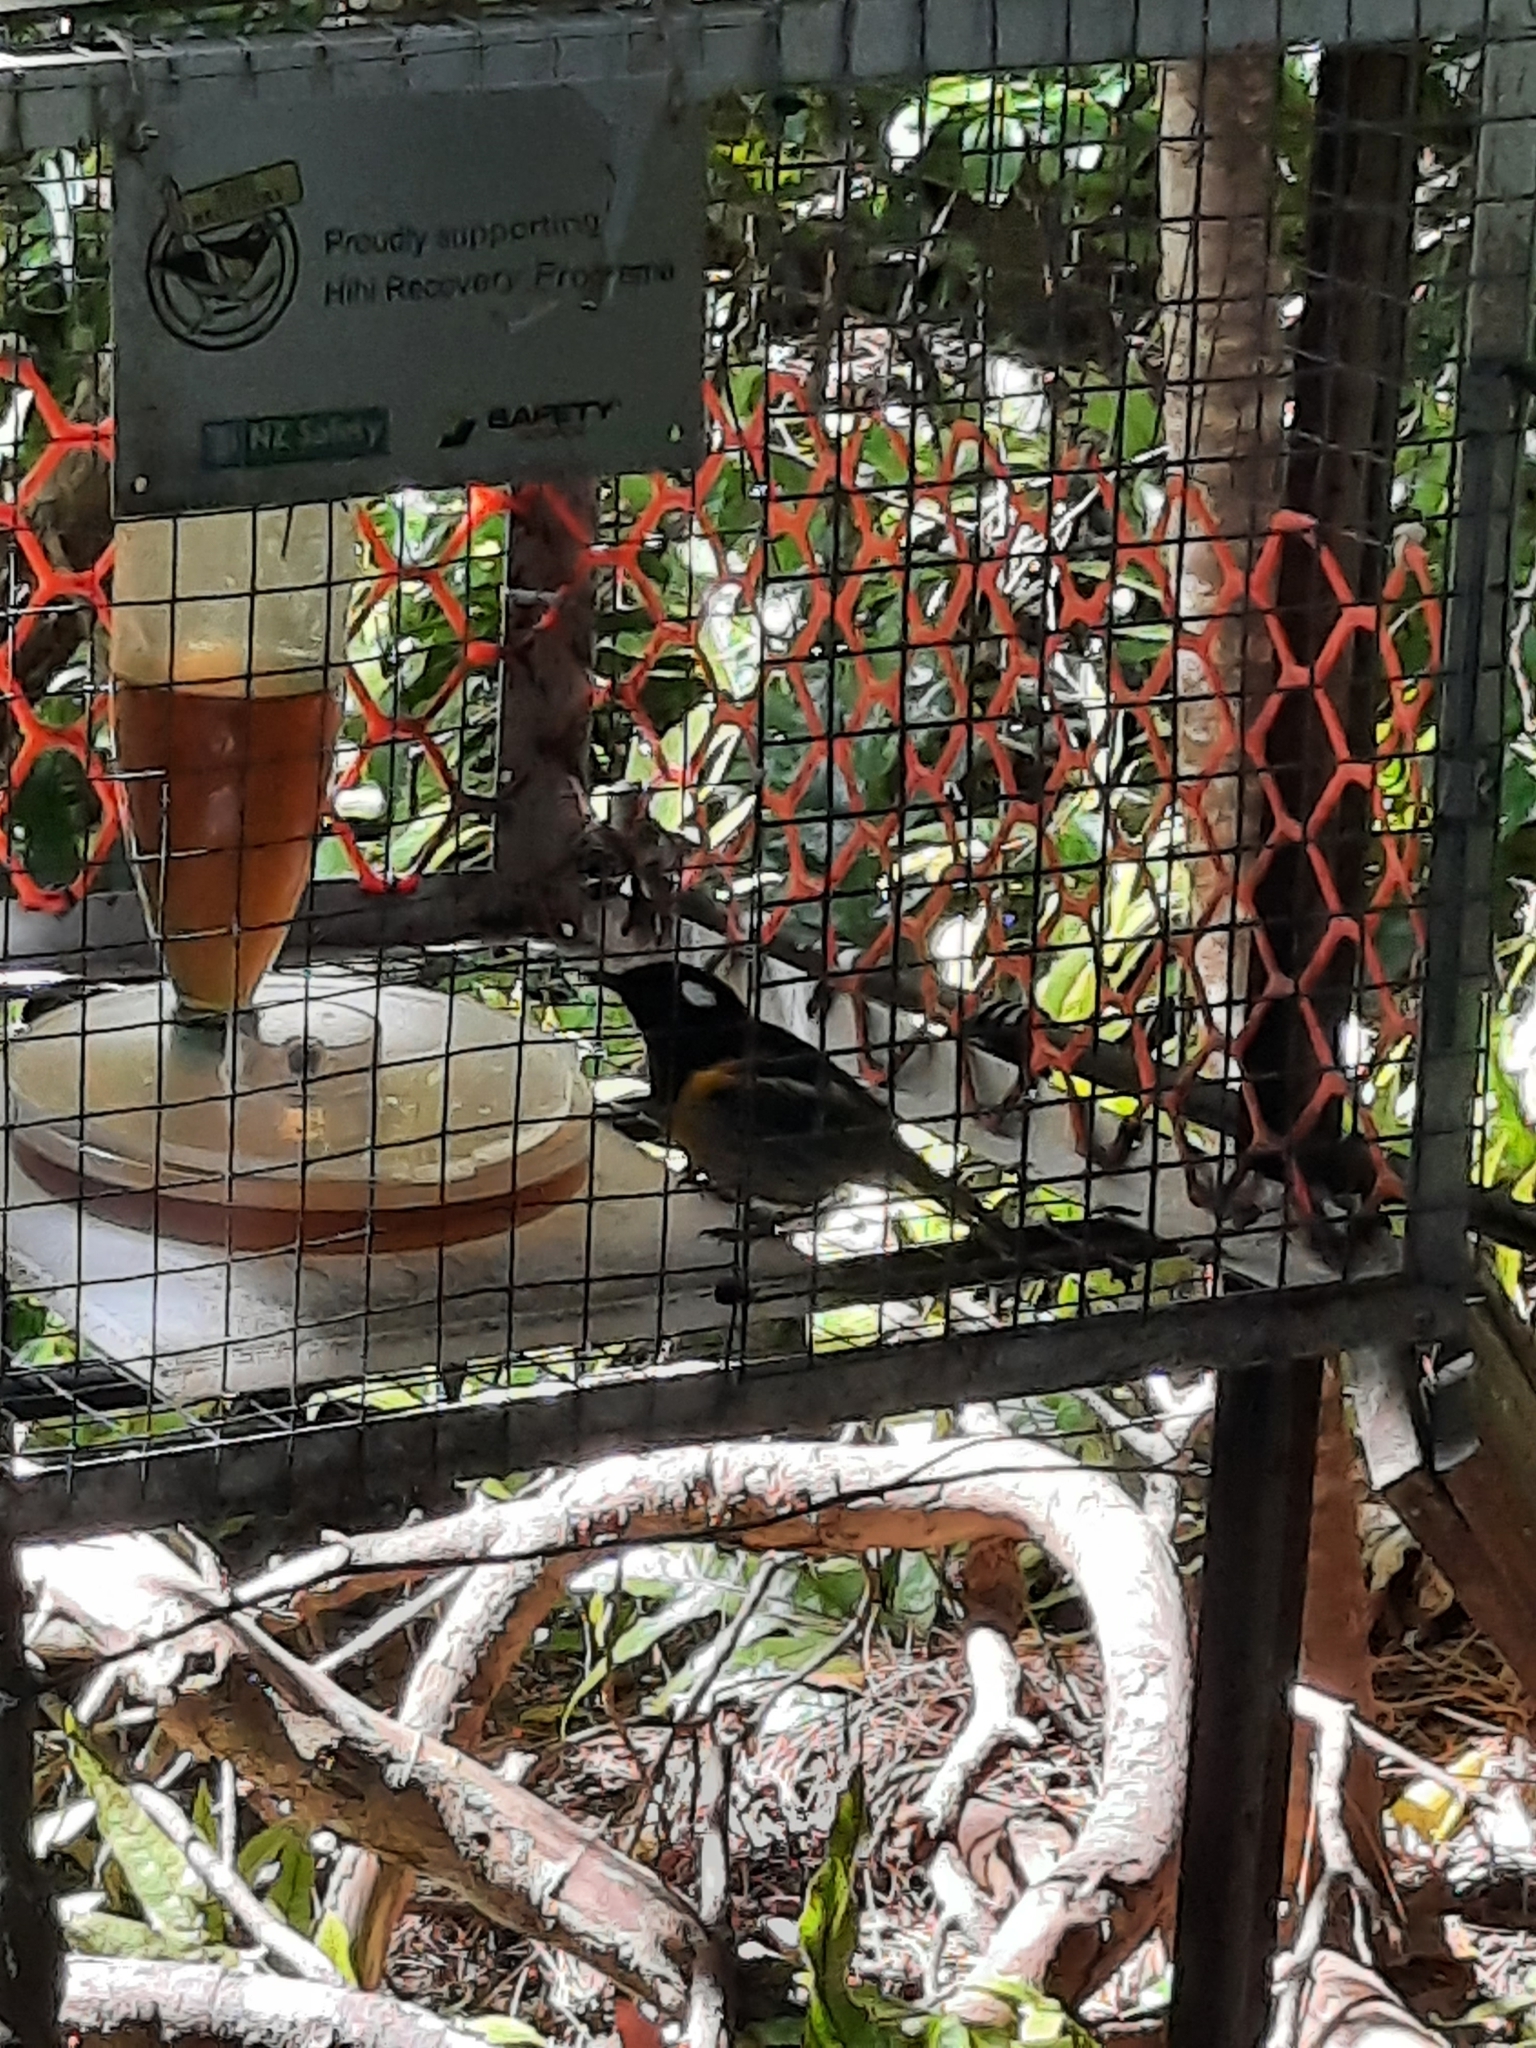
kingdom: Animalia
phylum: Chordata
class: Aves
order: Passeriformes
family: Notiomystidae
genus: Notiomystis
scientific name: Notiomystis cincta
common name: Stitchbird
